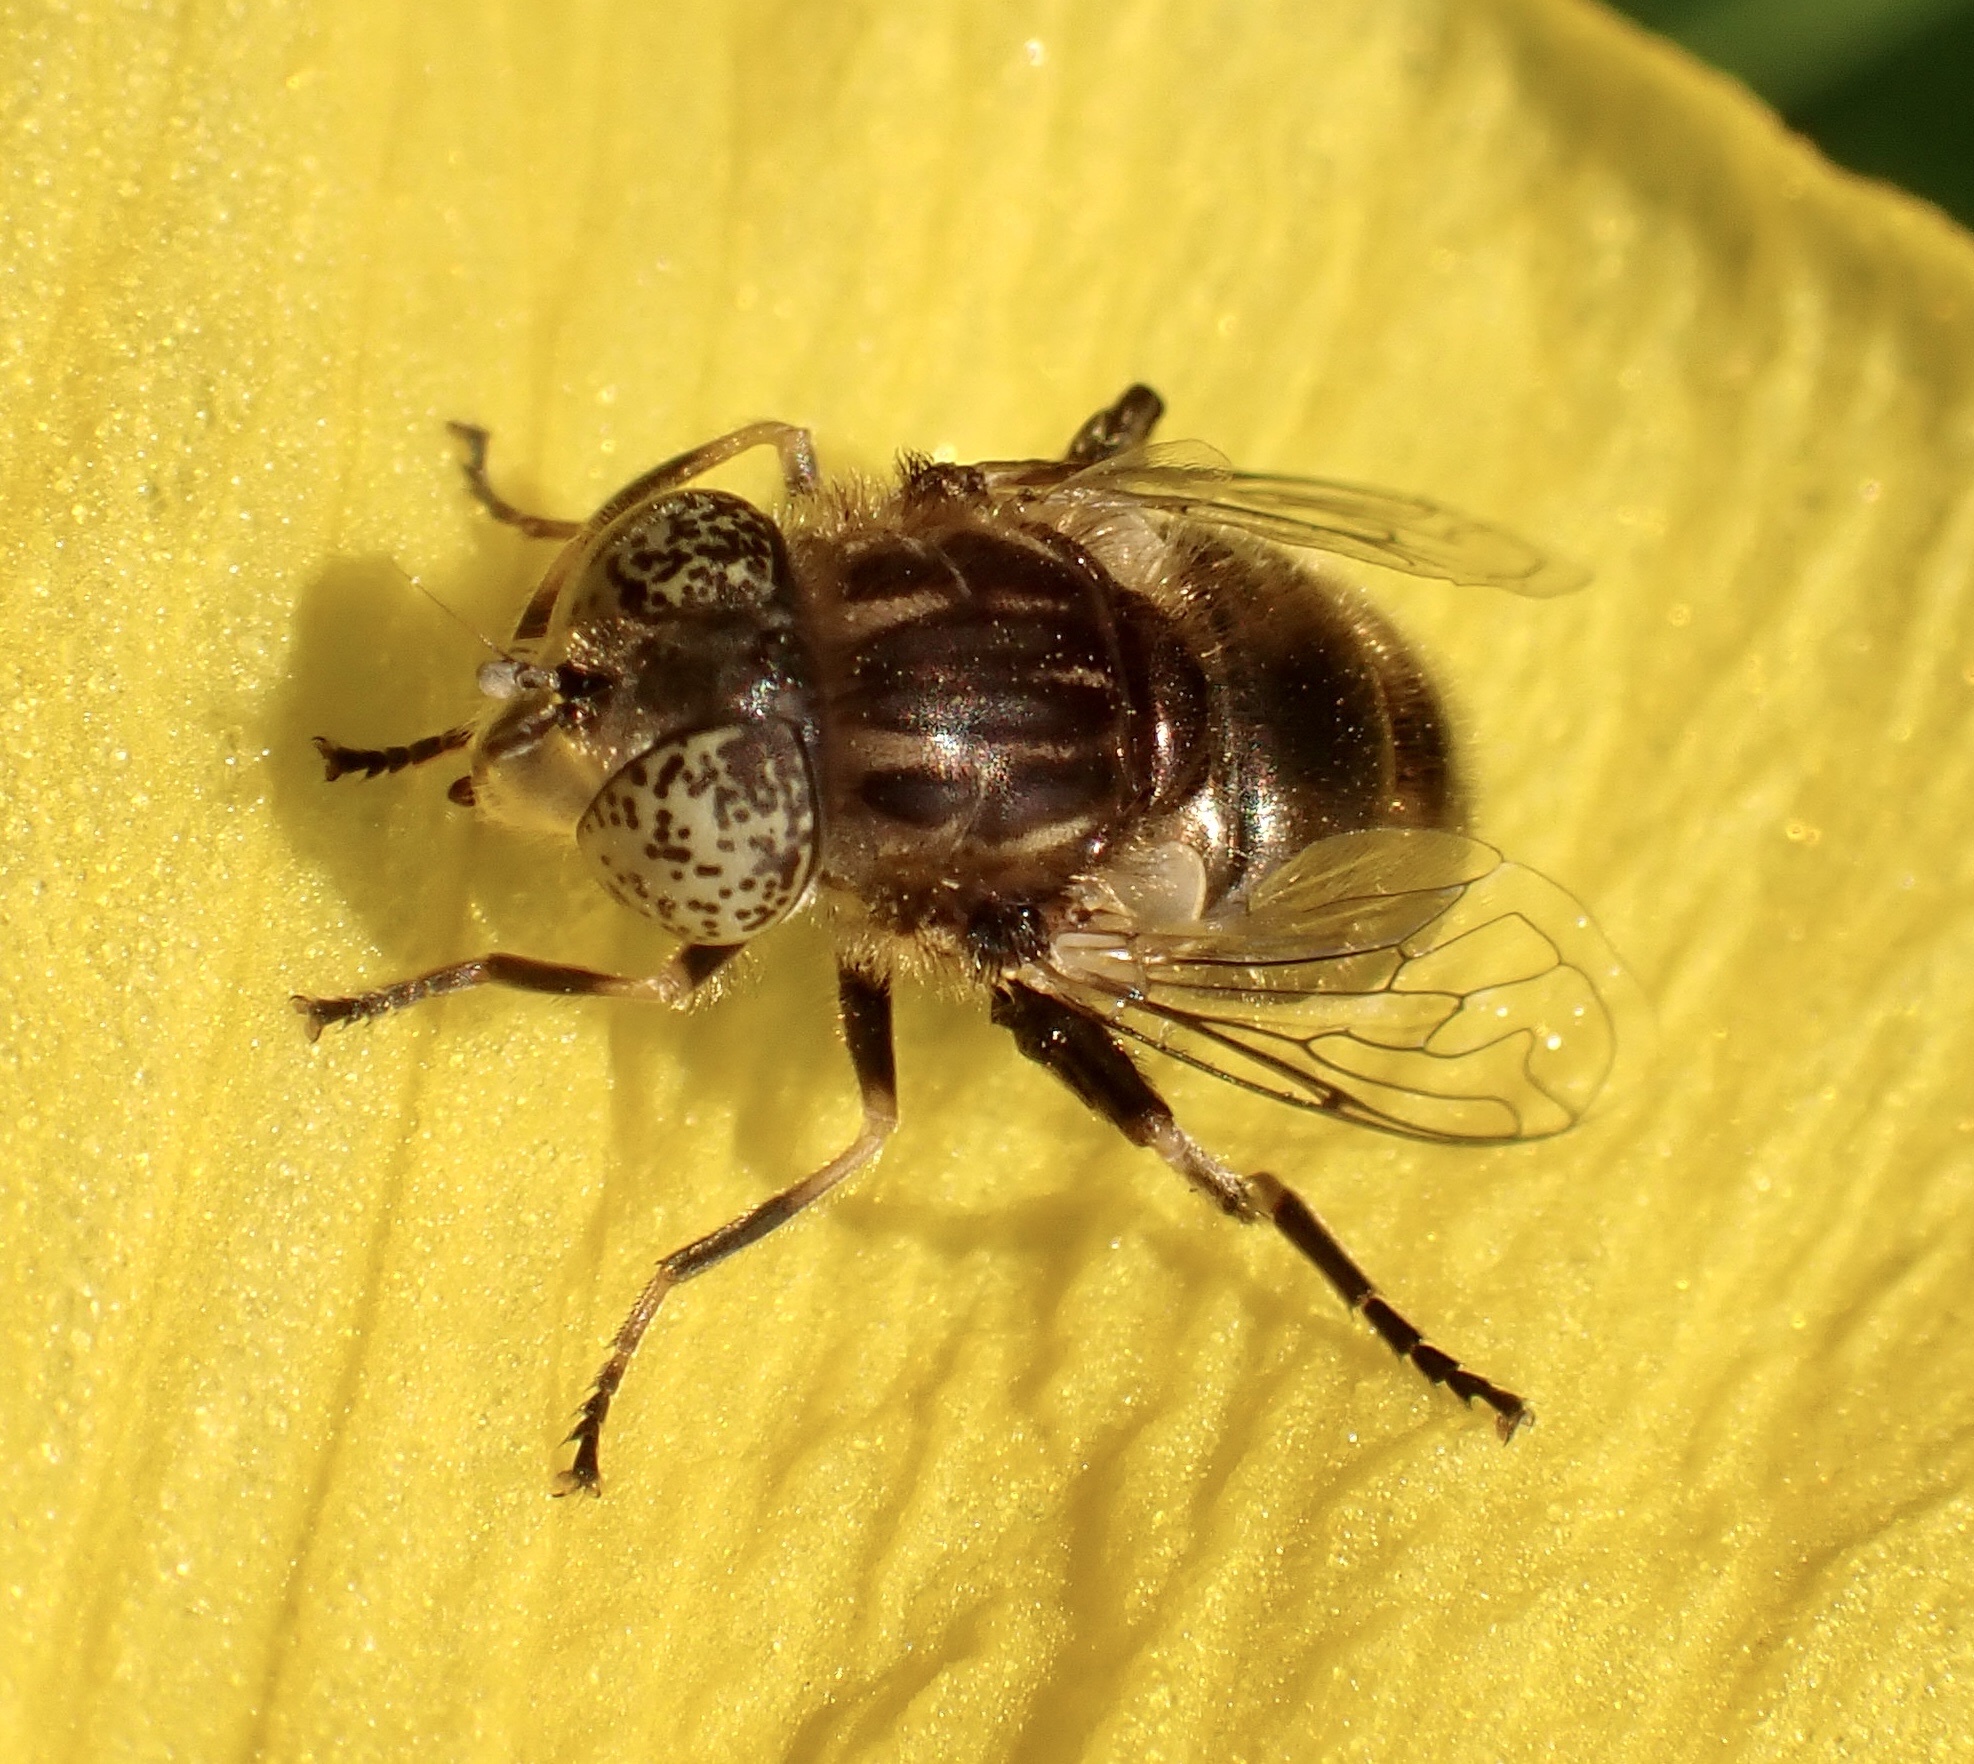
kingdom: Animalia
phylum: Arthropoda
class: Insecta
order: Diptera
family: Syrphidae
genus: Eristalinus
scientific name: Eristalinus sepulchralis
